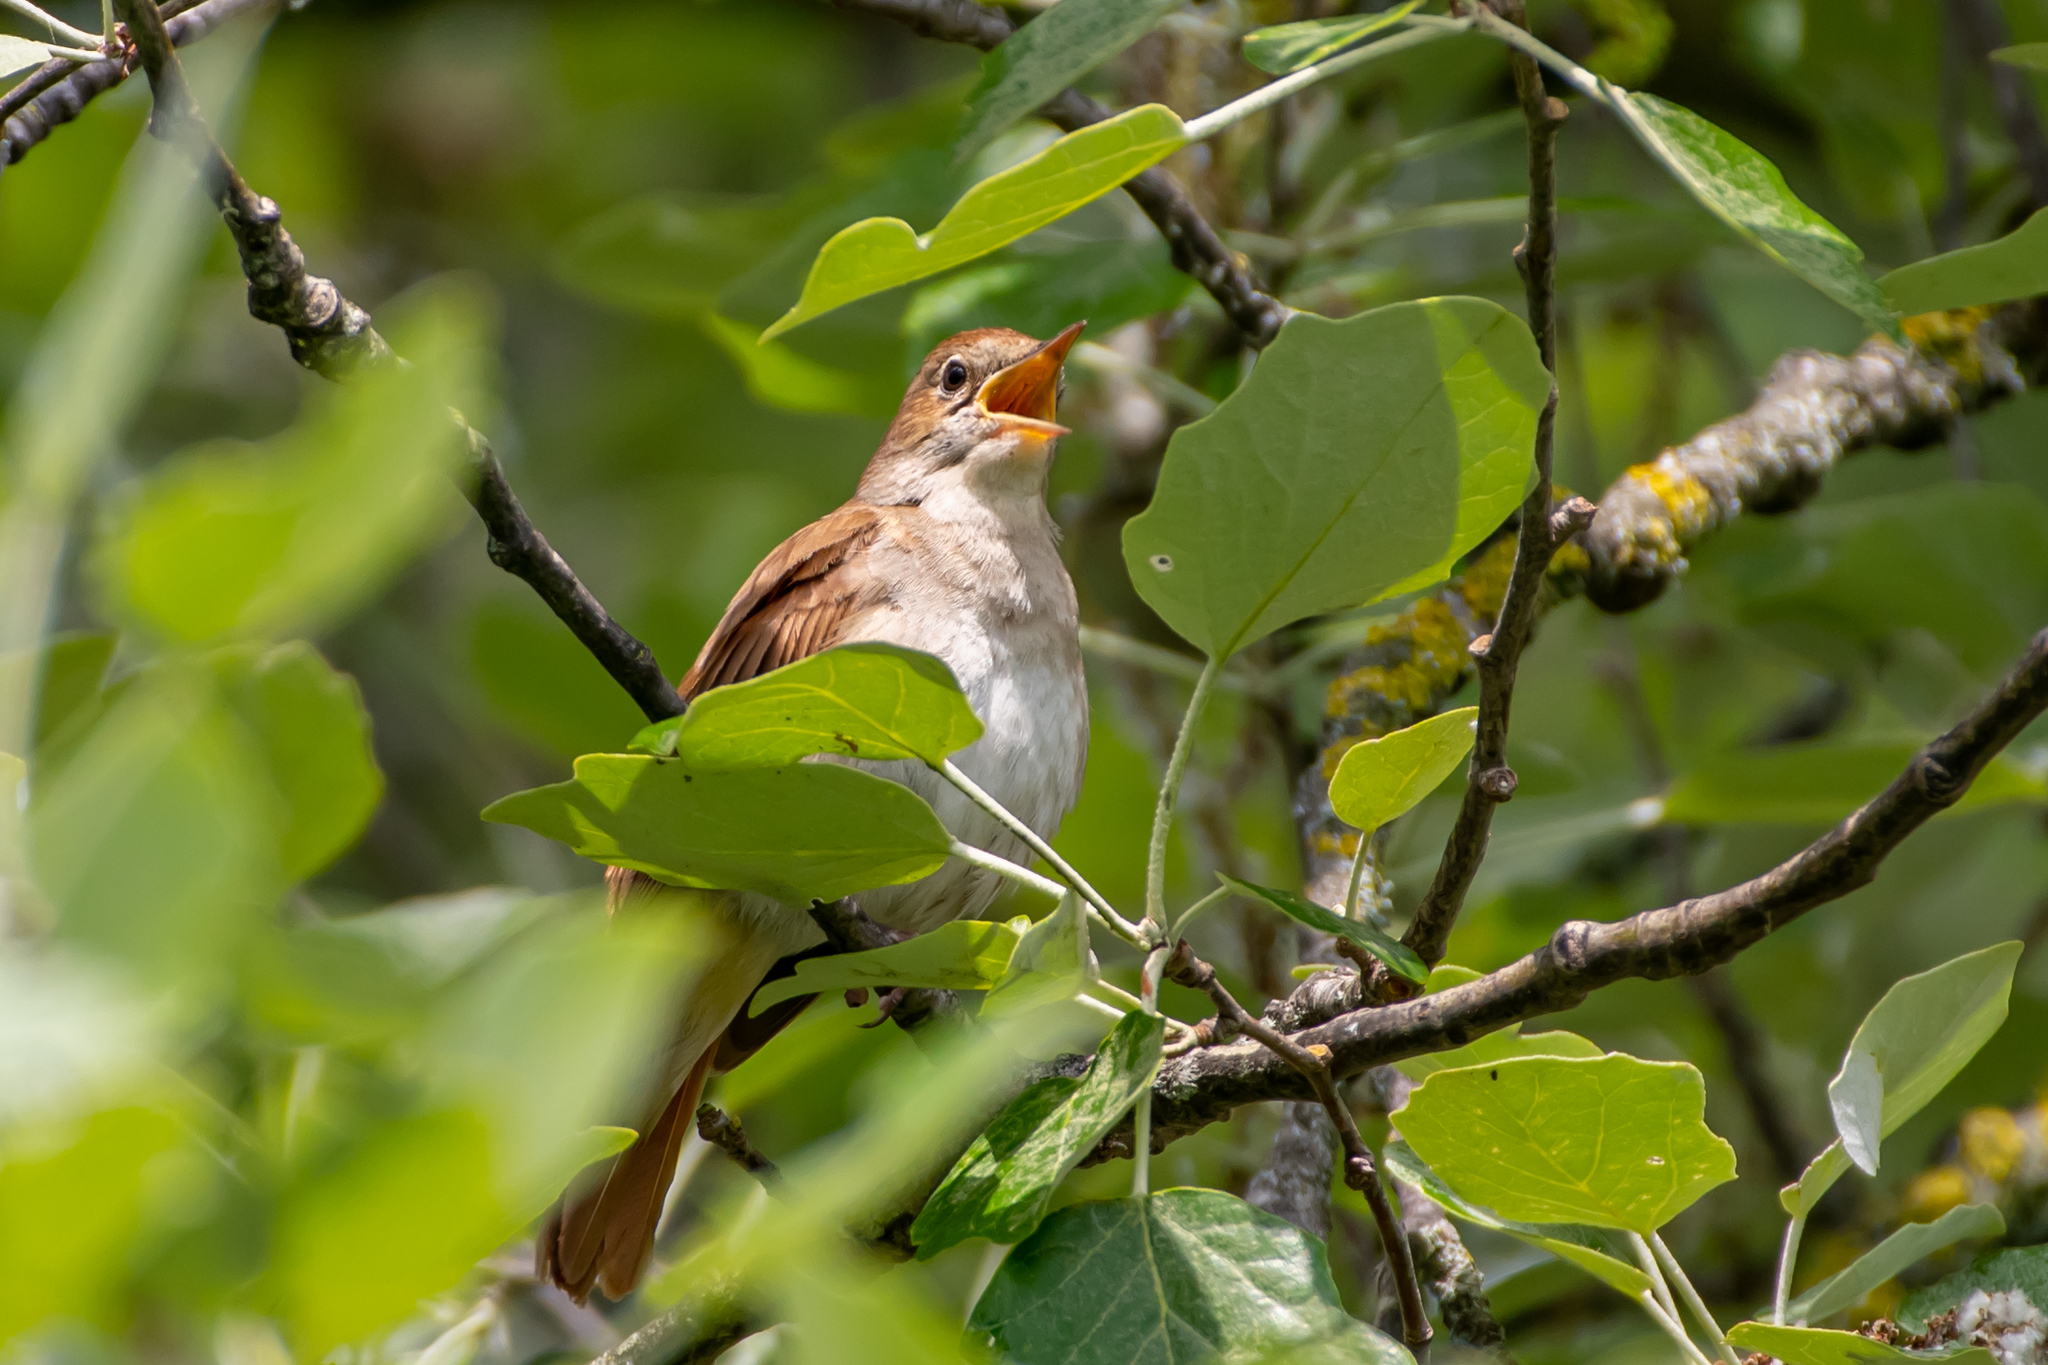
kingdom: Animalia
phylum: Chordata
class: Aves
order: Passeriformes
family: Muscicapidae
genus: Luscinia
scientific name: Luscinia megarhynchos
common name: Common nightingale
